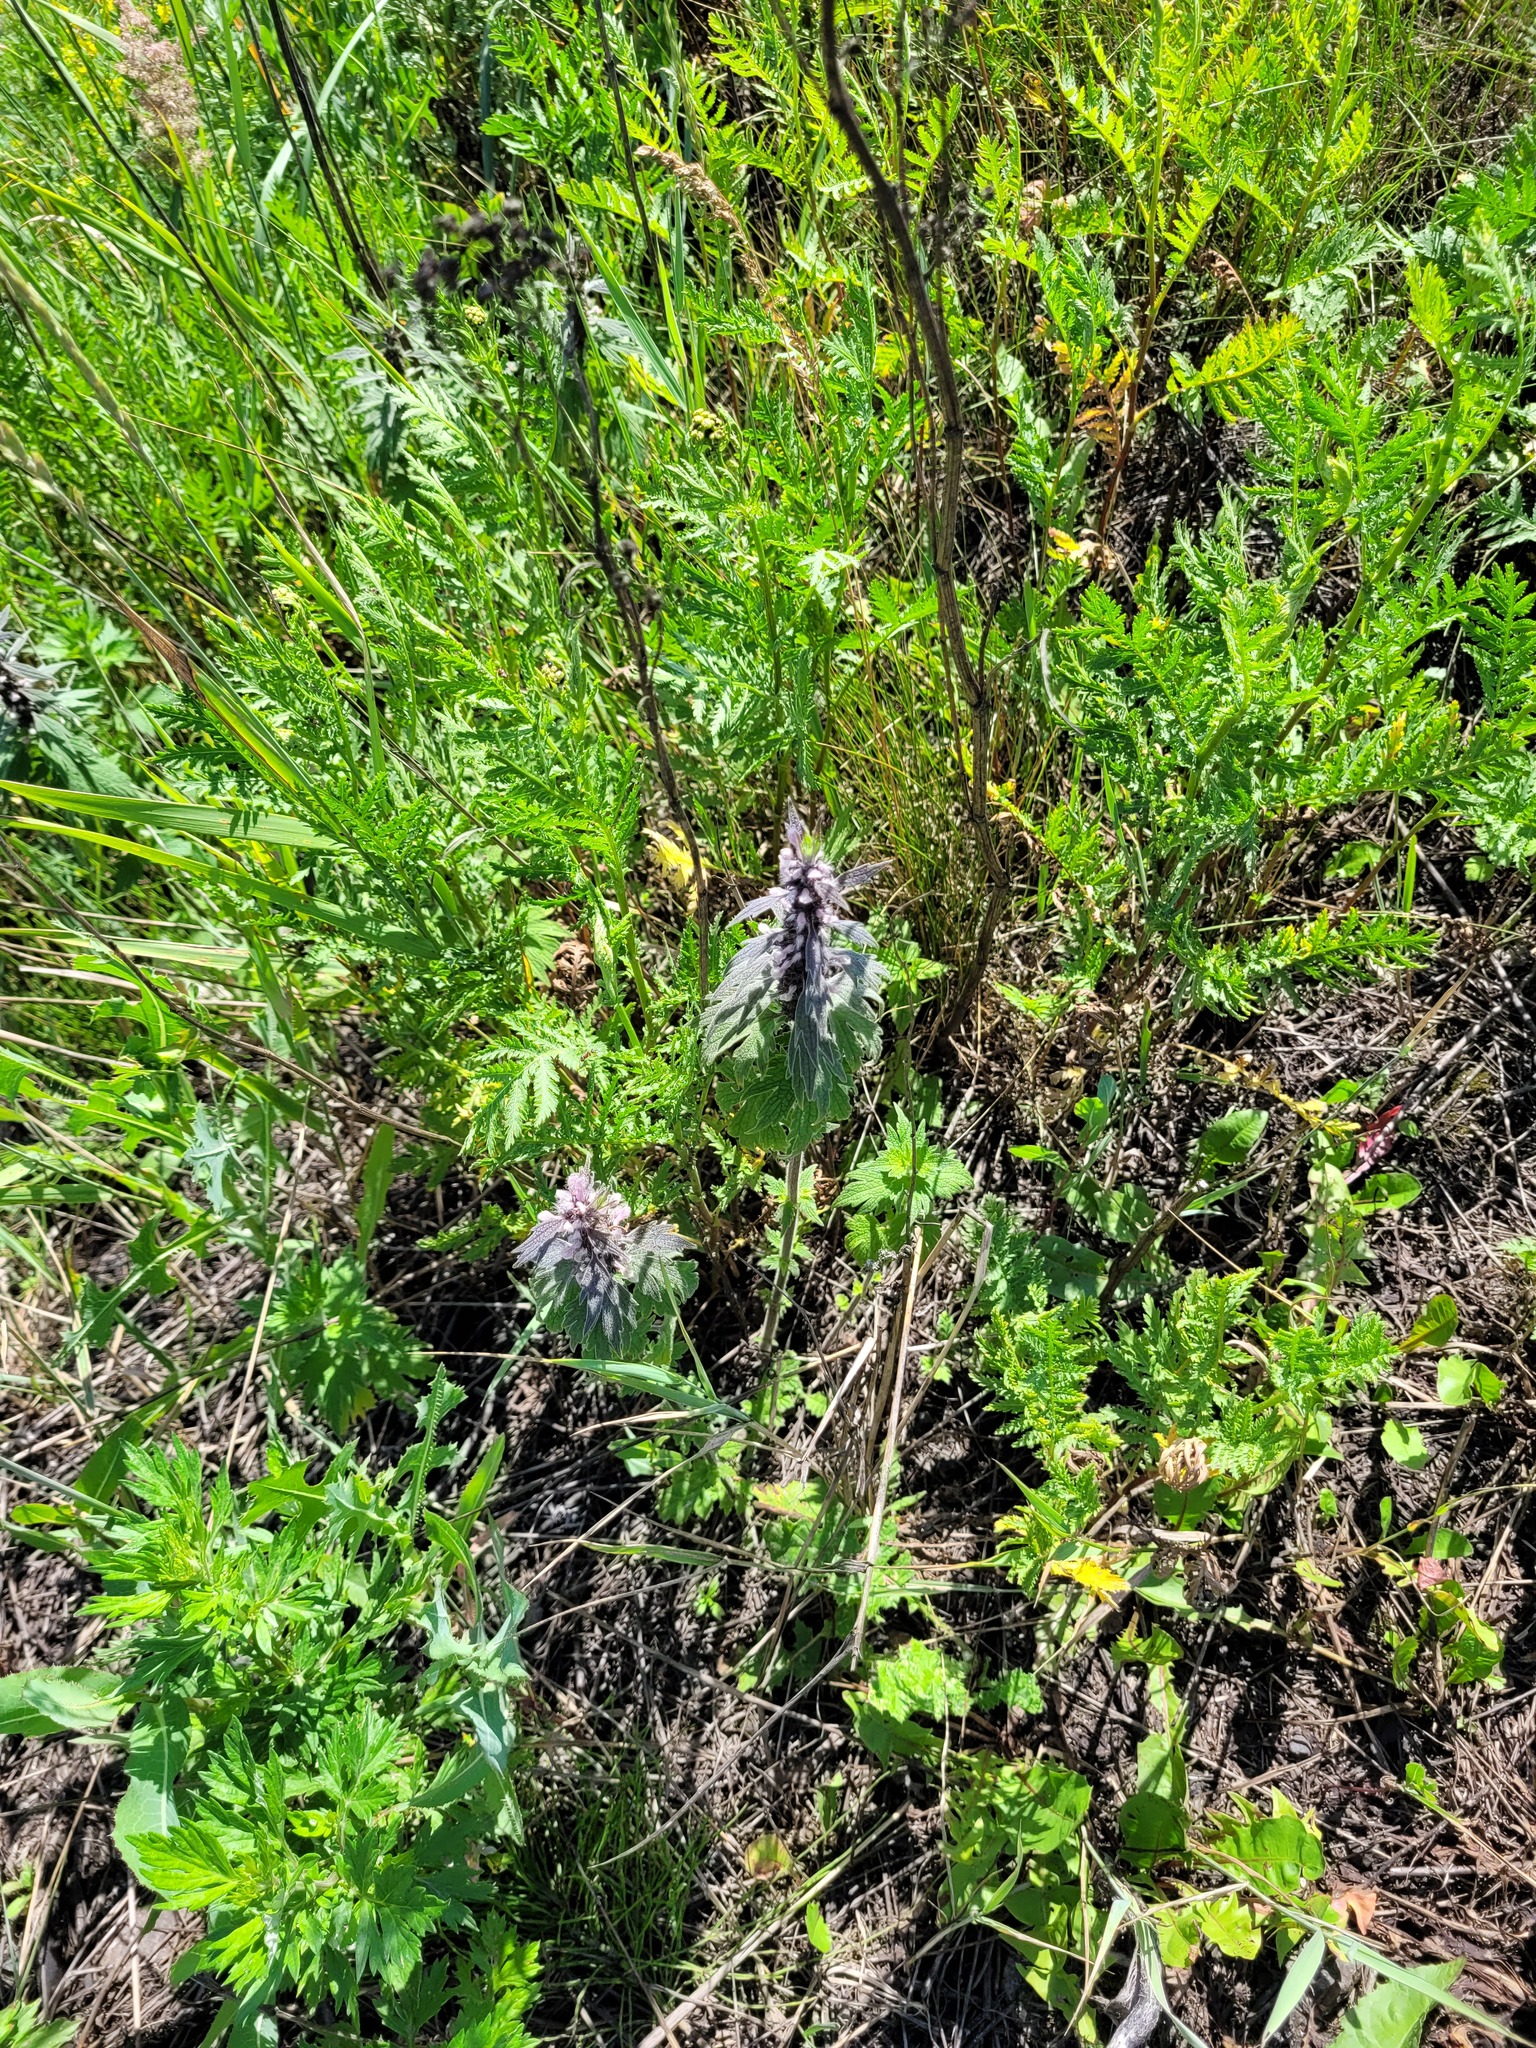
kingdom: Plantae
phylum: Tracheophyta
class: Magnoliopsida
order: Lamiales
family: Lamiaceae
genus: Leonurus
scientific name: Leonurus quinquelobatus
